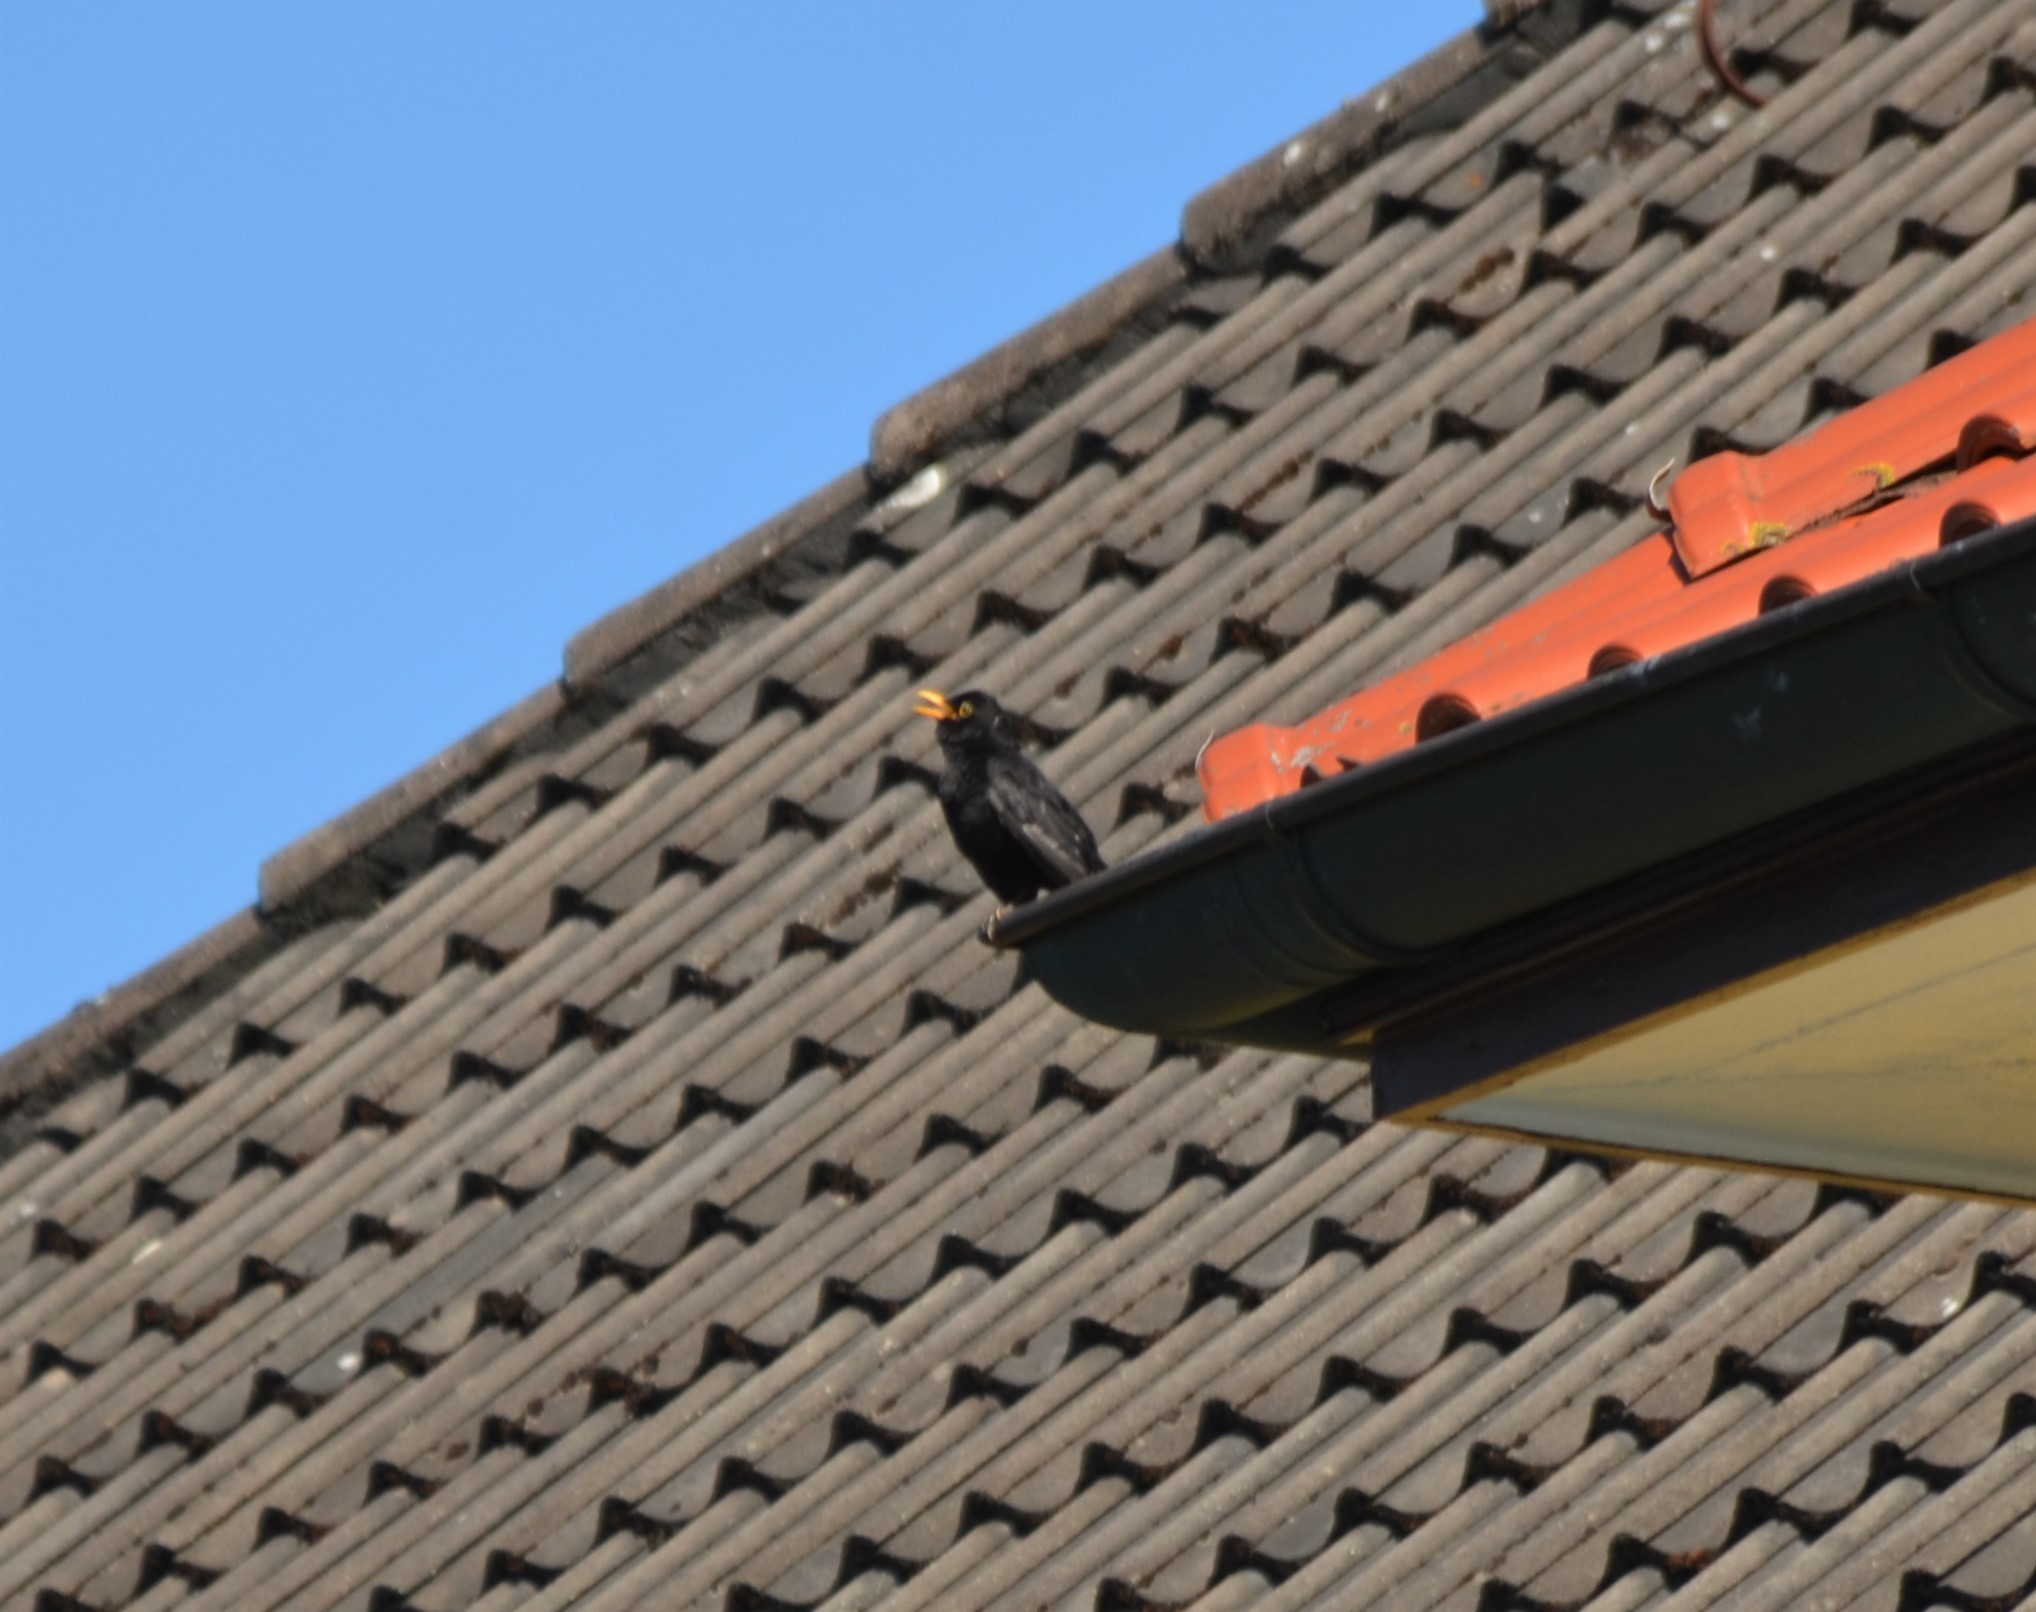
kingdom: Animalia
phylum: Chordata
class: Aves
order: Passeriformes
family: Turdidae
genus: Turdus
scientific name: Turdus merula
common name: Common blackbird
